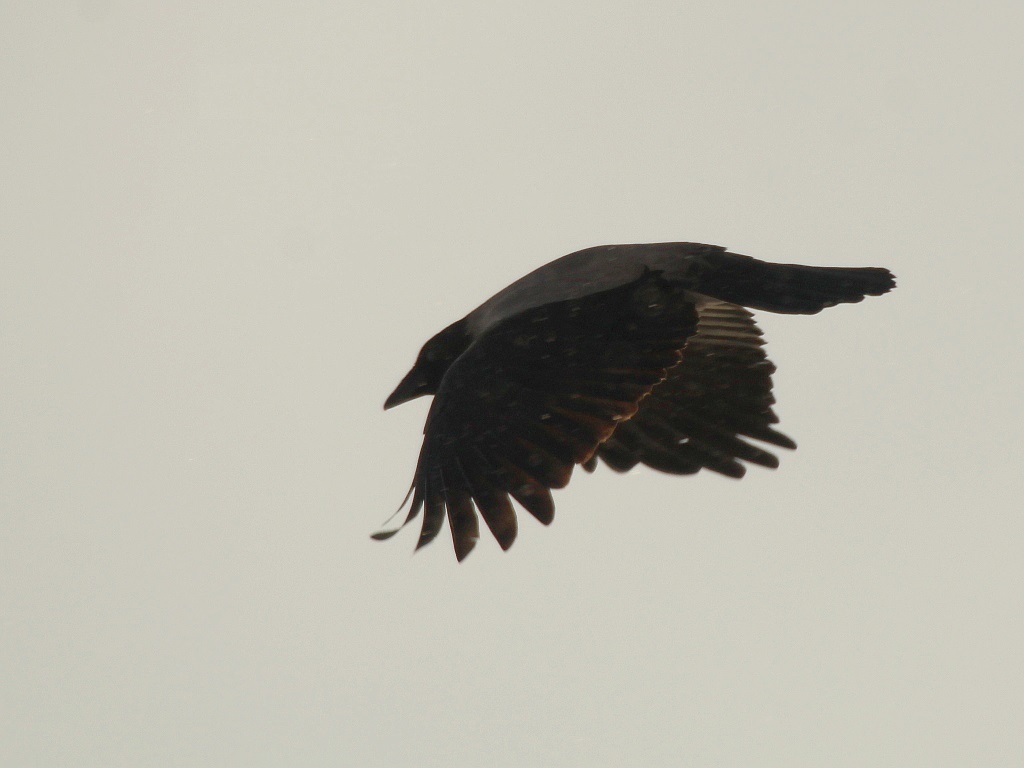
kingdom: Animalia
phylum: Chordata
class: Aves
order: Passeriformes
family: Corvidae
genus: Corvus
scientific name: Corvus cornix
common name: Hooded crow
